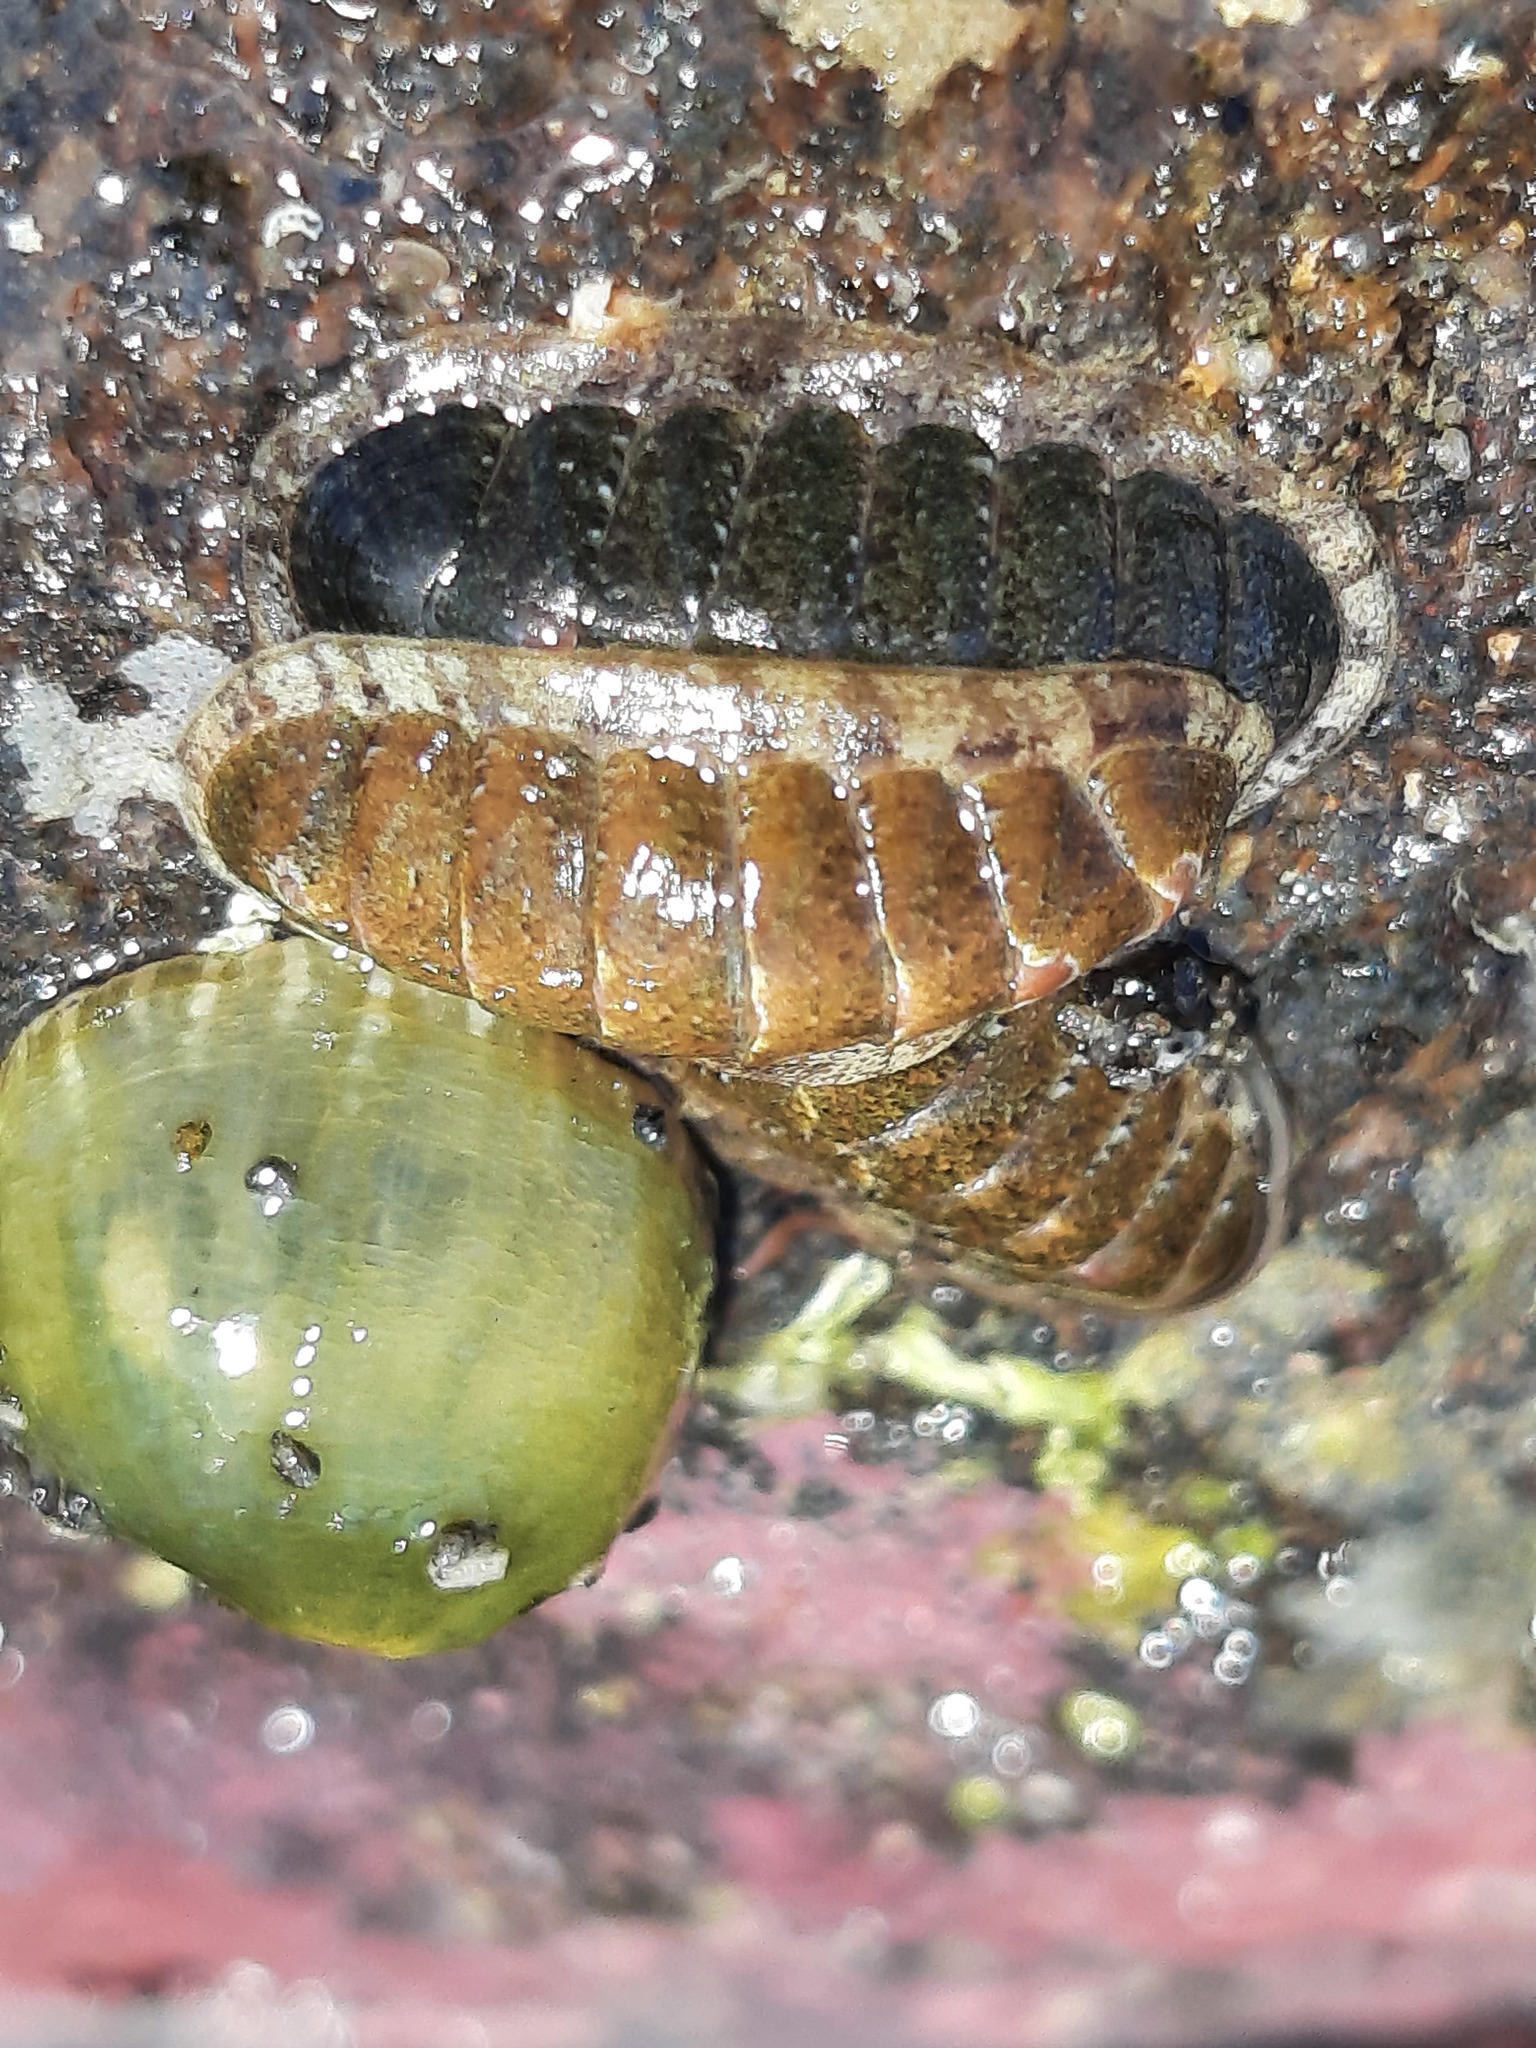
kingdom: Animalia
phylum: Mollusca
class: Polyplacophora
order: Chitonida
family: Ischnochitonidae
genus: Ischnochiton
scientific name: Ischnochiton maorianus
